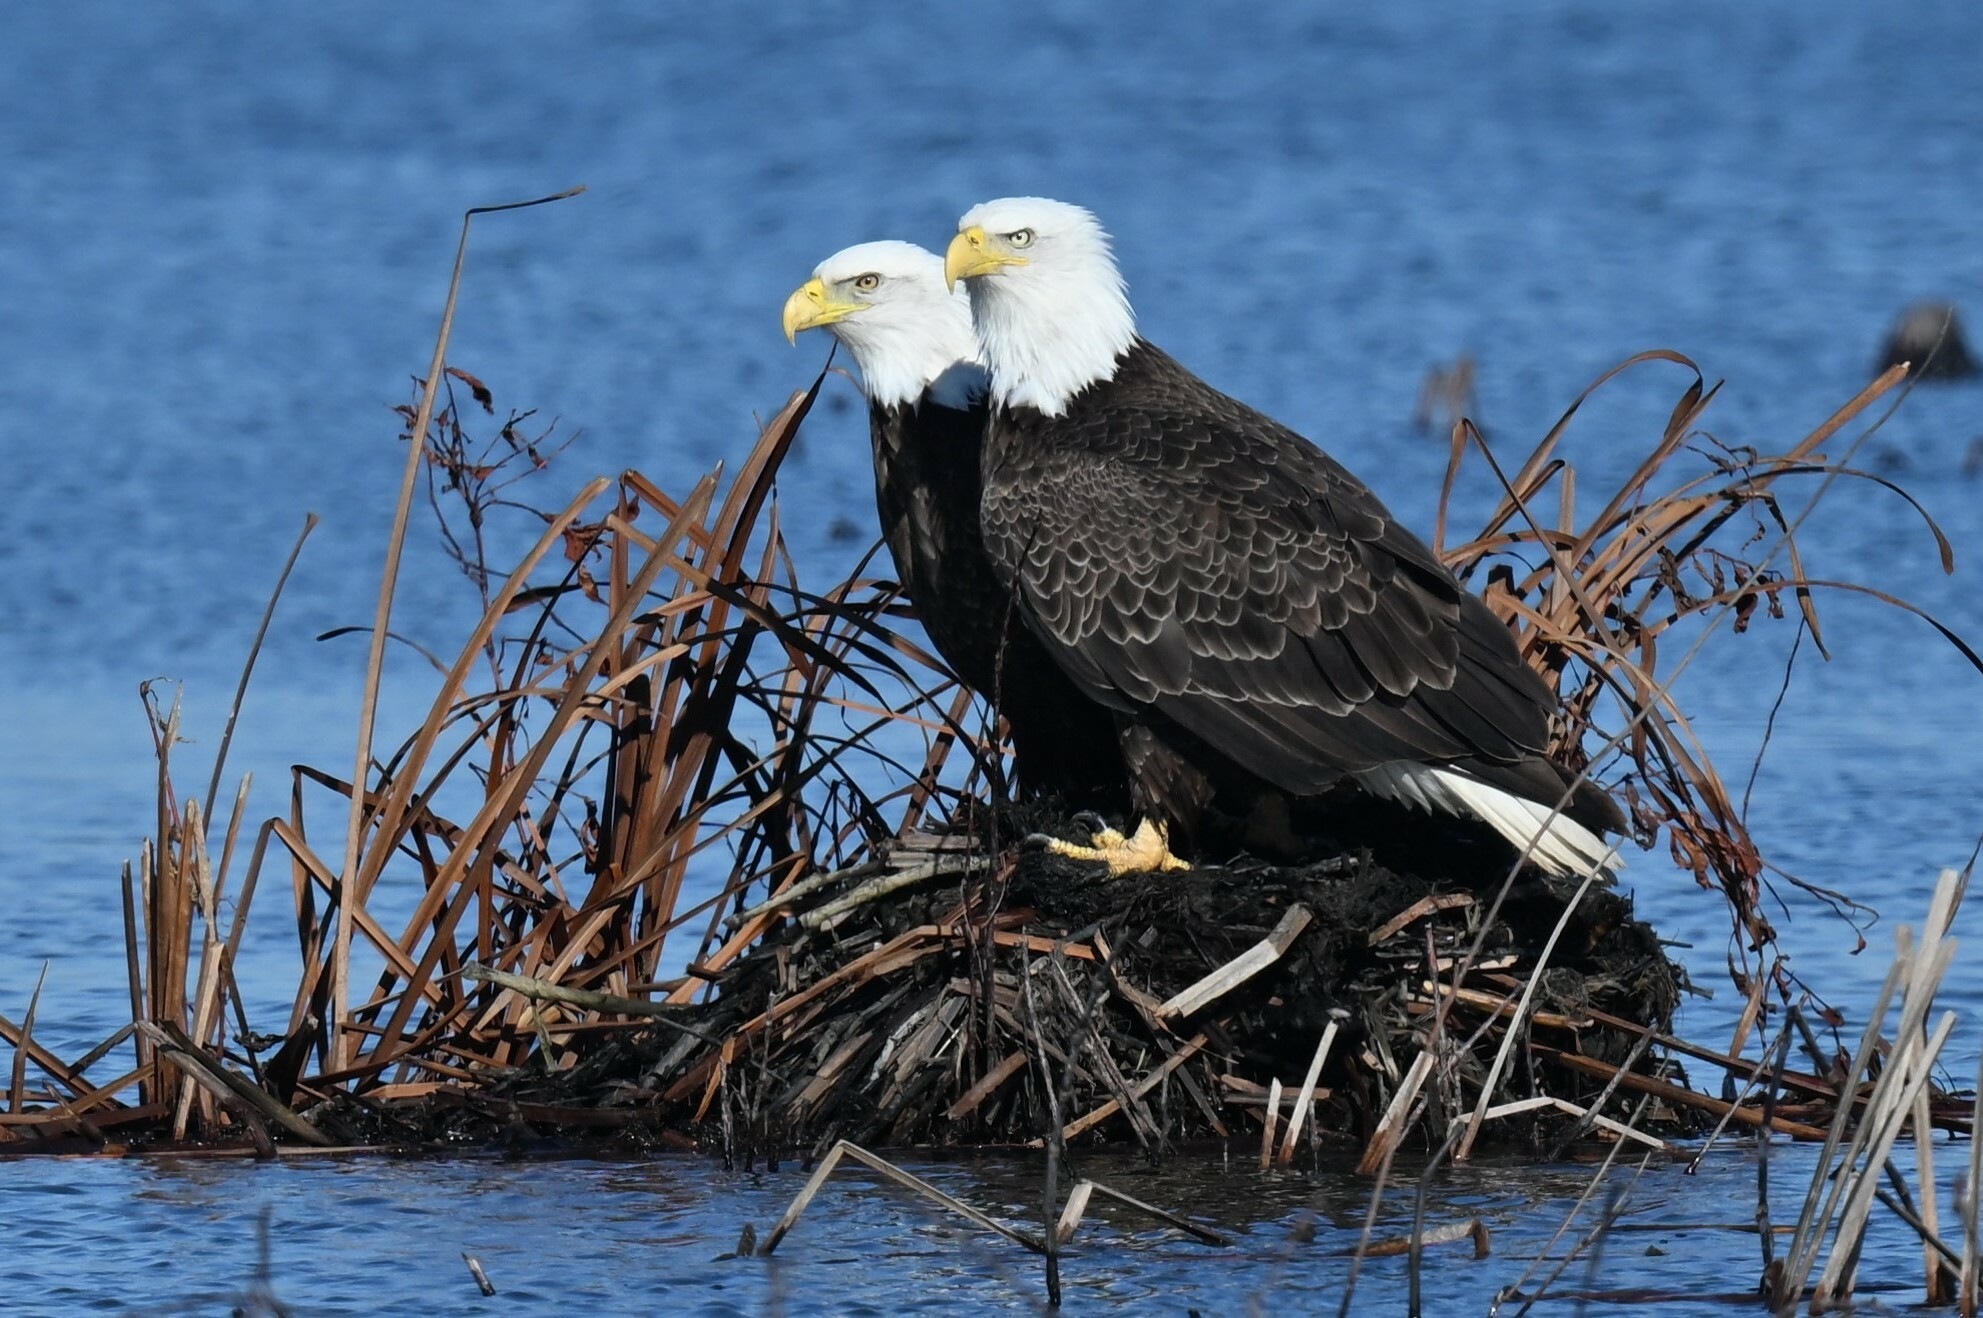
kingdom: Animalia
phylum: Chordata
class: Aves
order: Accipitriformes
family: Accipitridae
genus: Haliaeetus
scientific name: Haliaeetus leucocephalus
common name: Bald eagle
